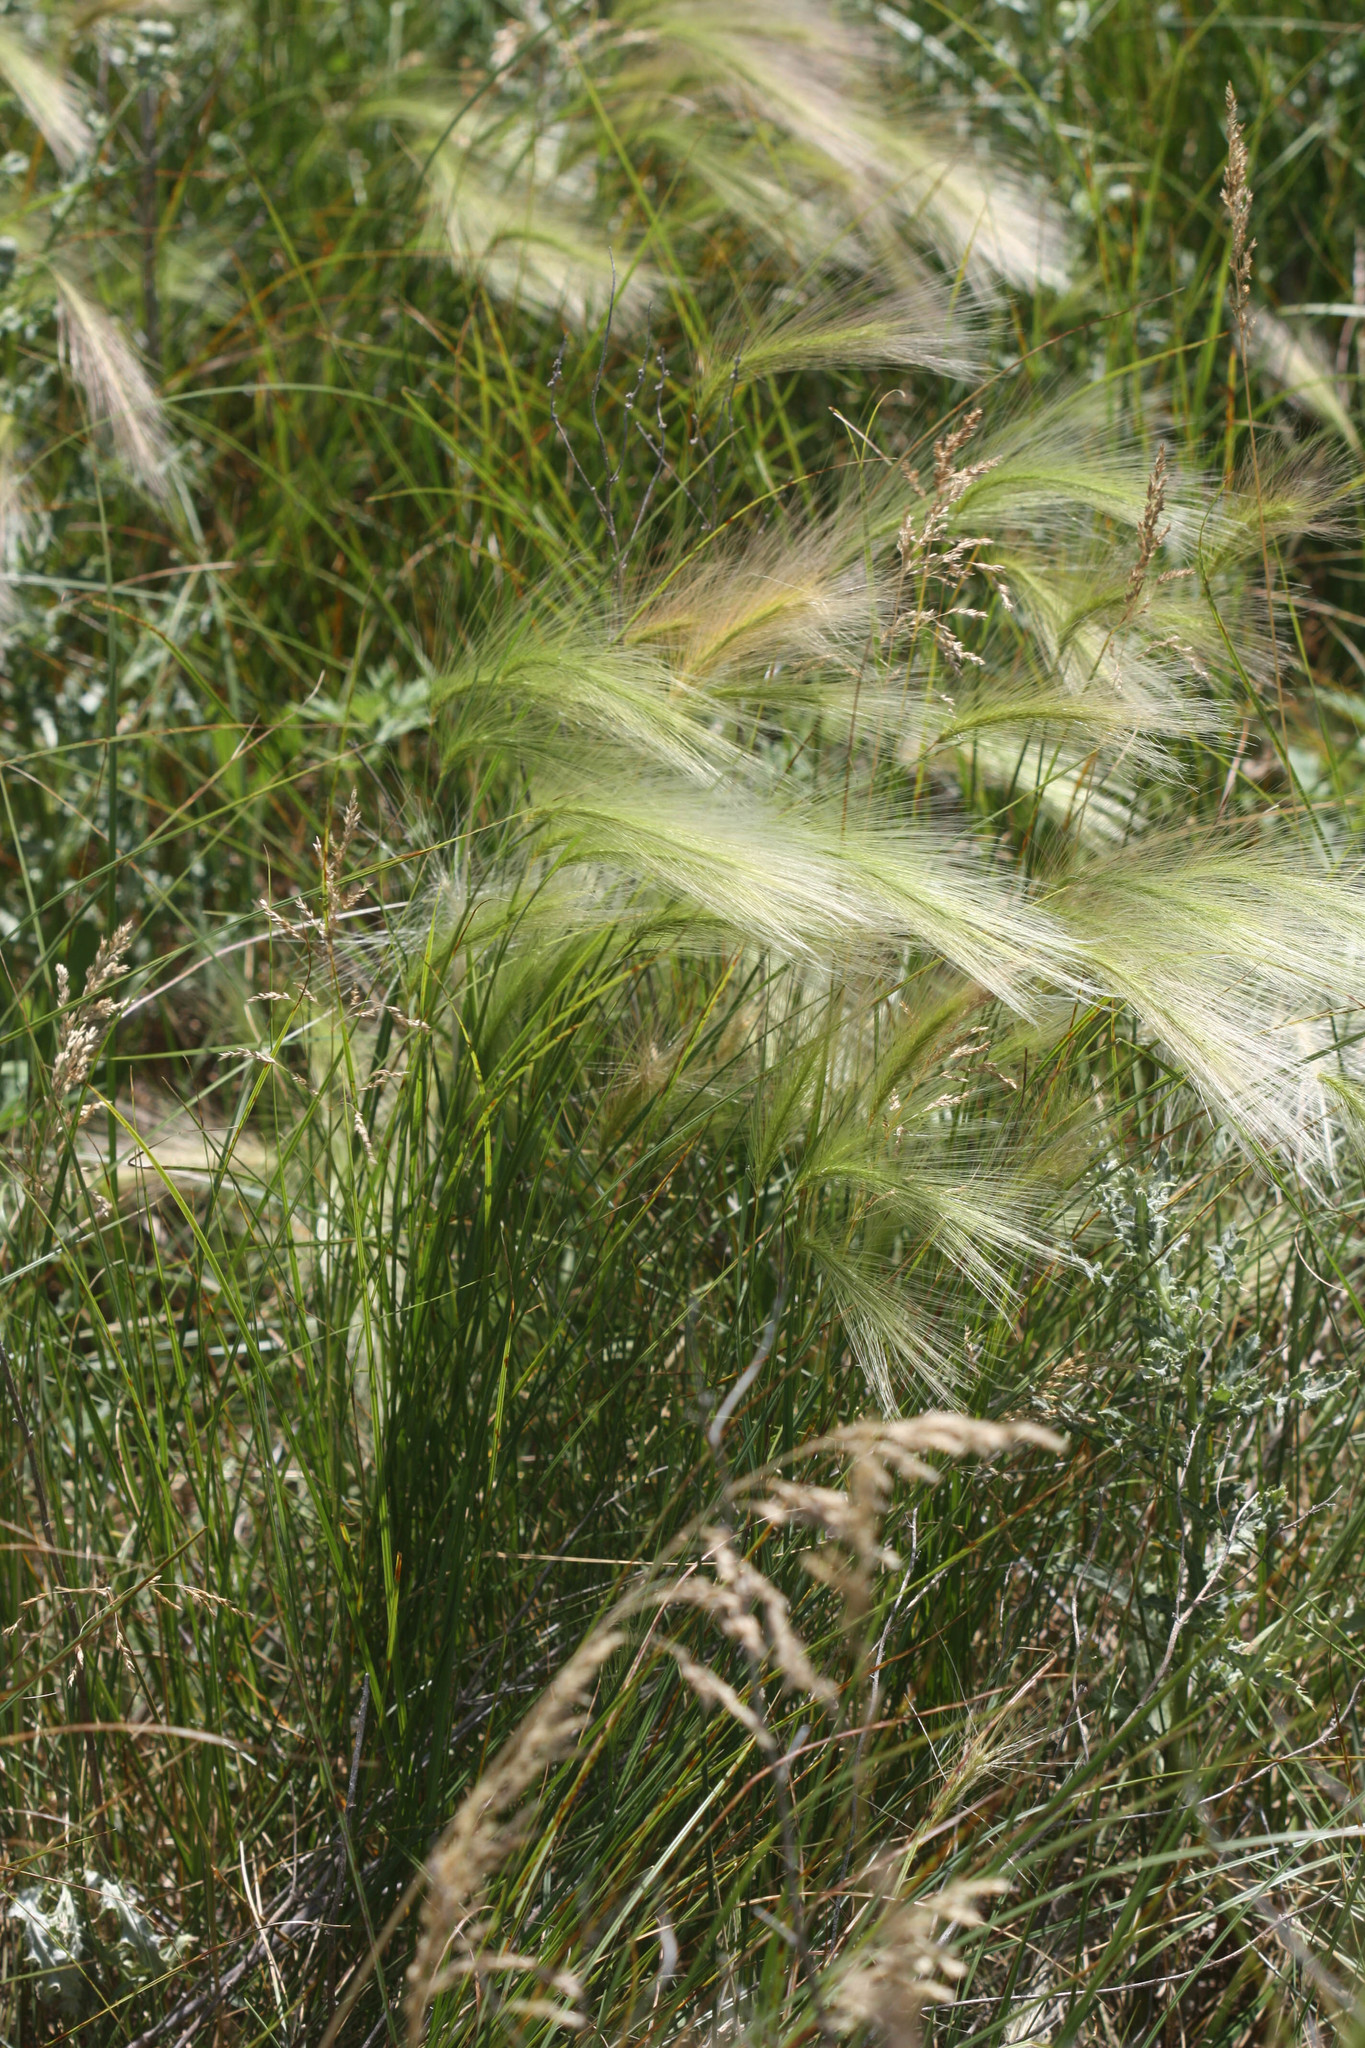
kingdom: Plantae
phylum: Tracheophyta
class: Liliopsida
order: Poales
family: Poaceae
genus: Hordeum
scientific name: Hordeum jubatum
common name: Foxtail barley
